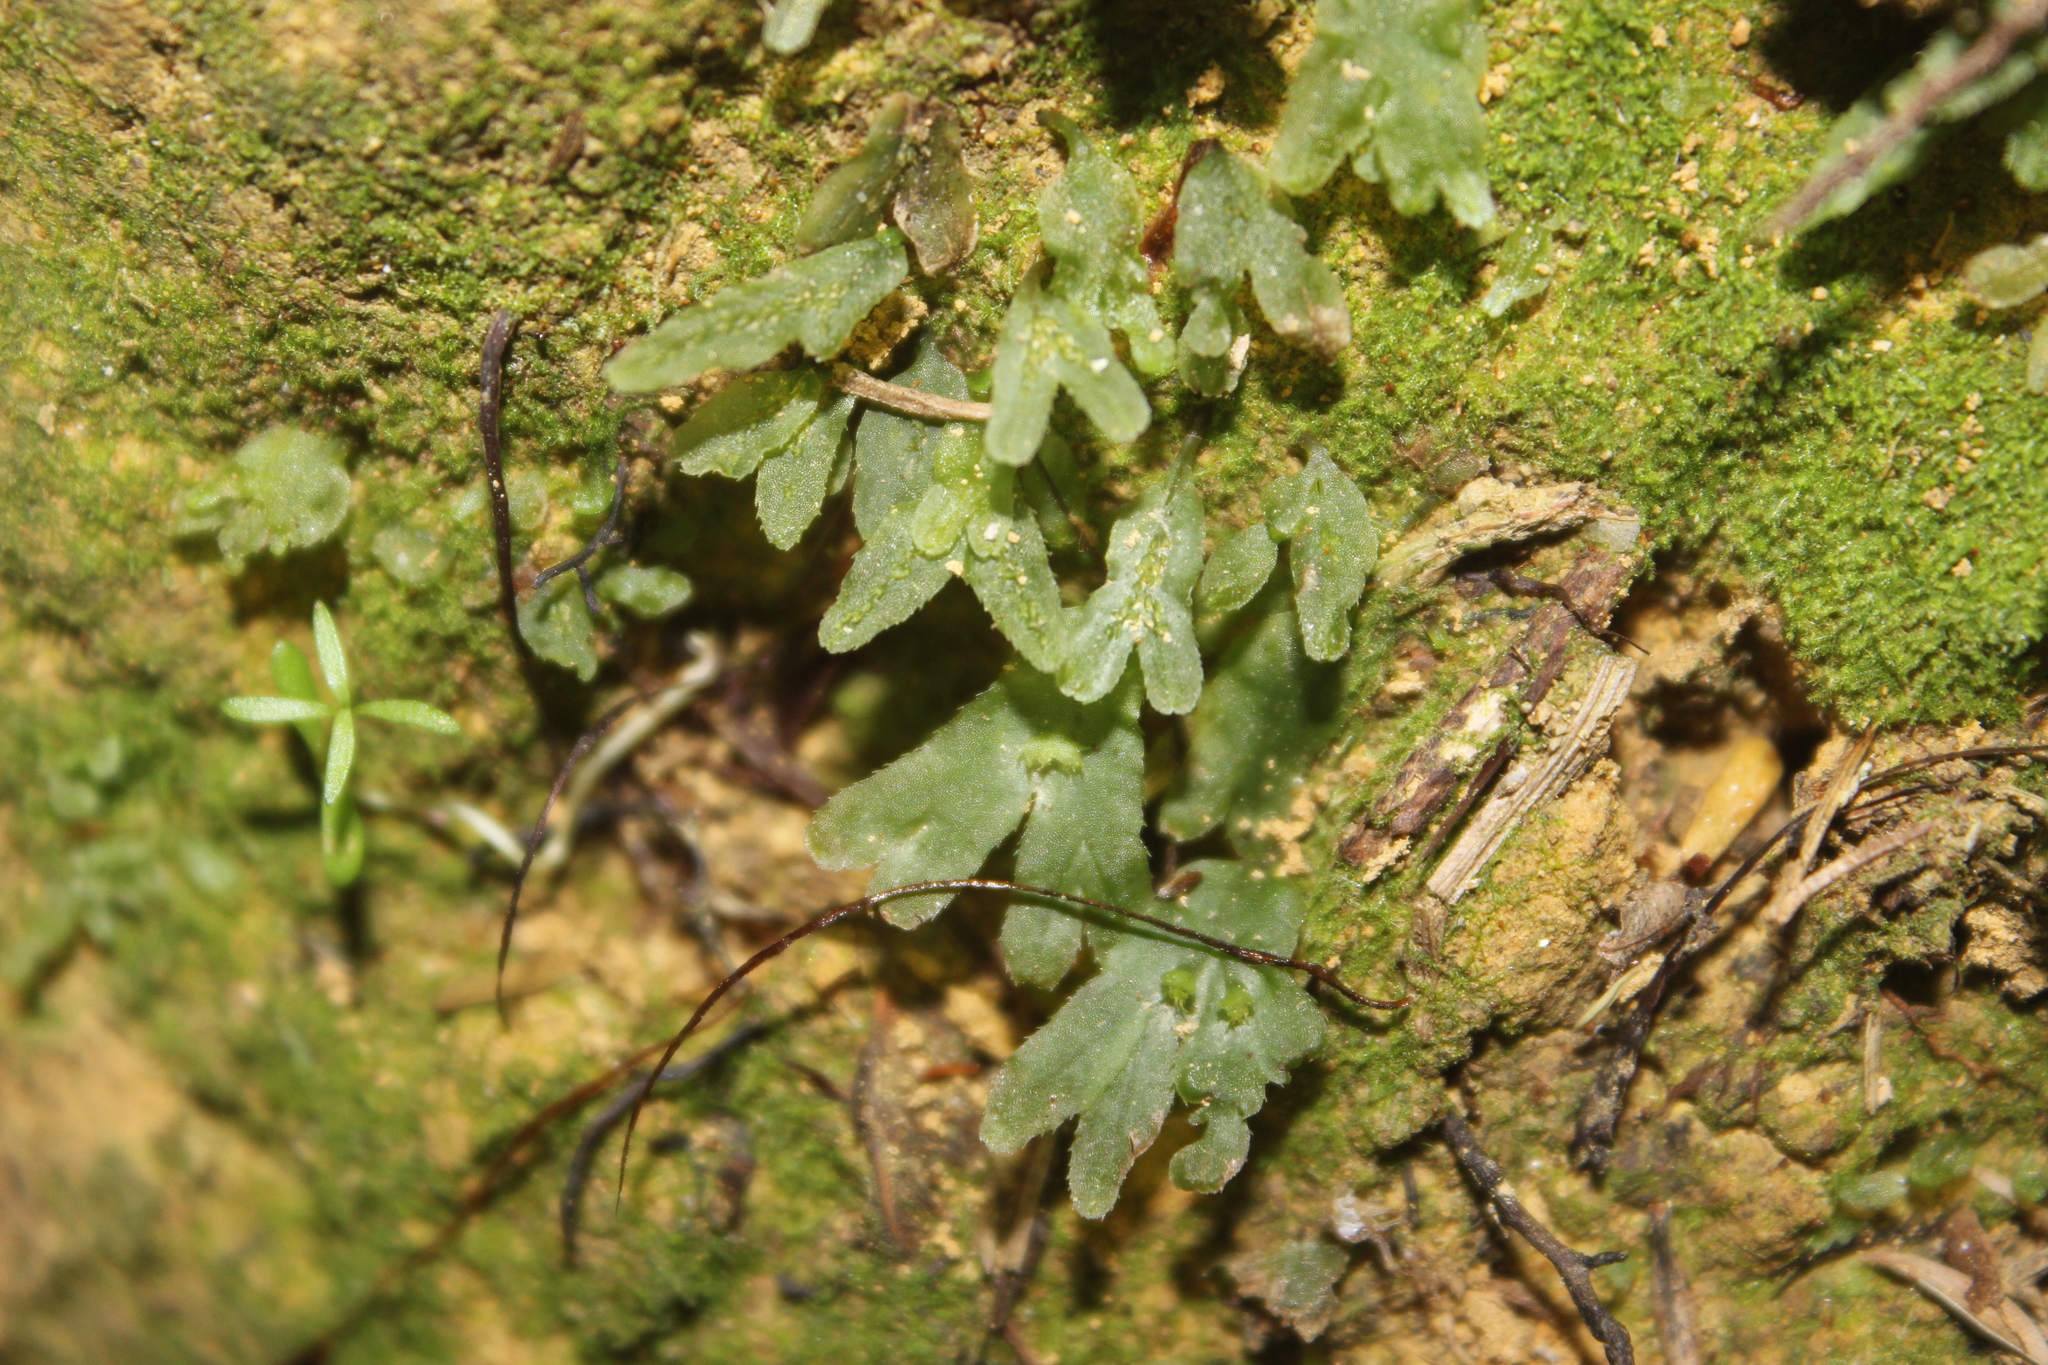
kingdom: Plantae
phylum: Marchantiophyta
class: Jungermanniopsida
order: Pallaviciniales
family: Pallaviciniaceae
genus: Symphyogyna
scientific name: Symphyogyna hymenophyllum
